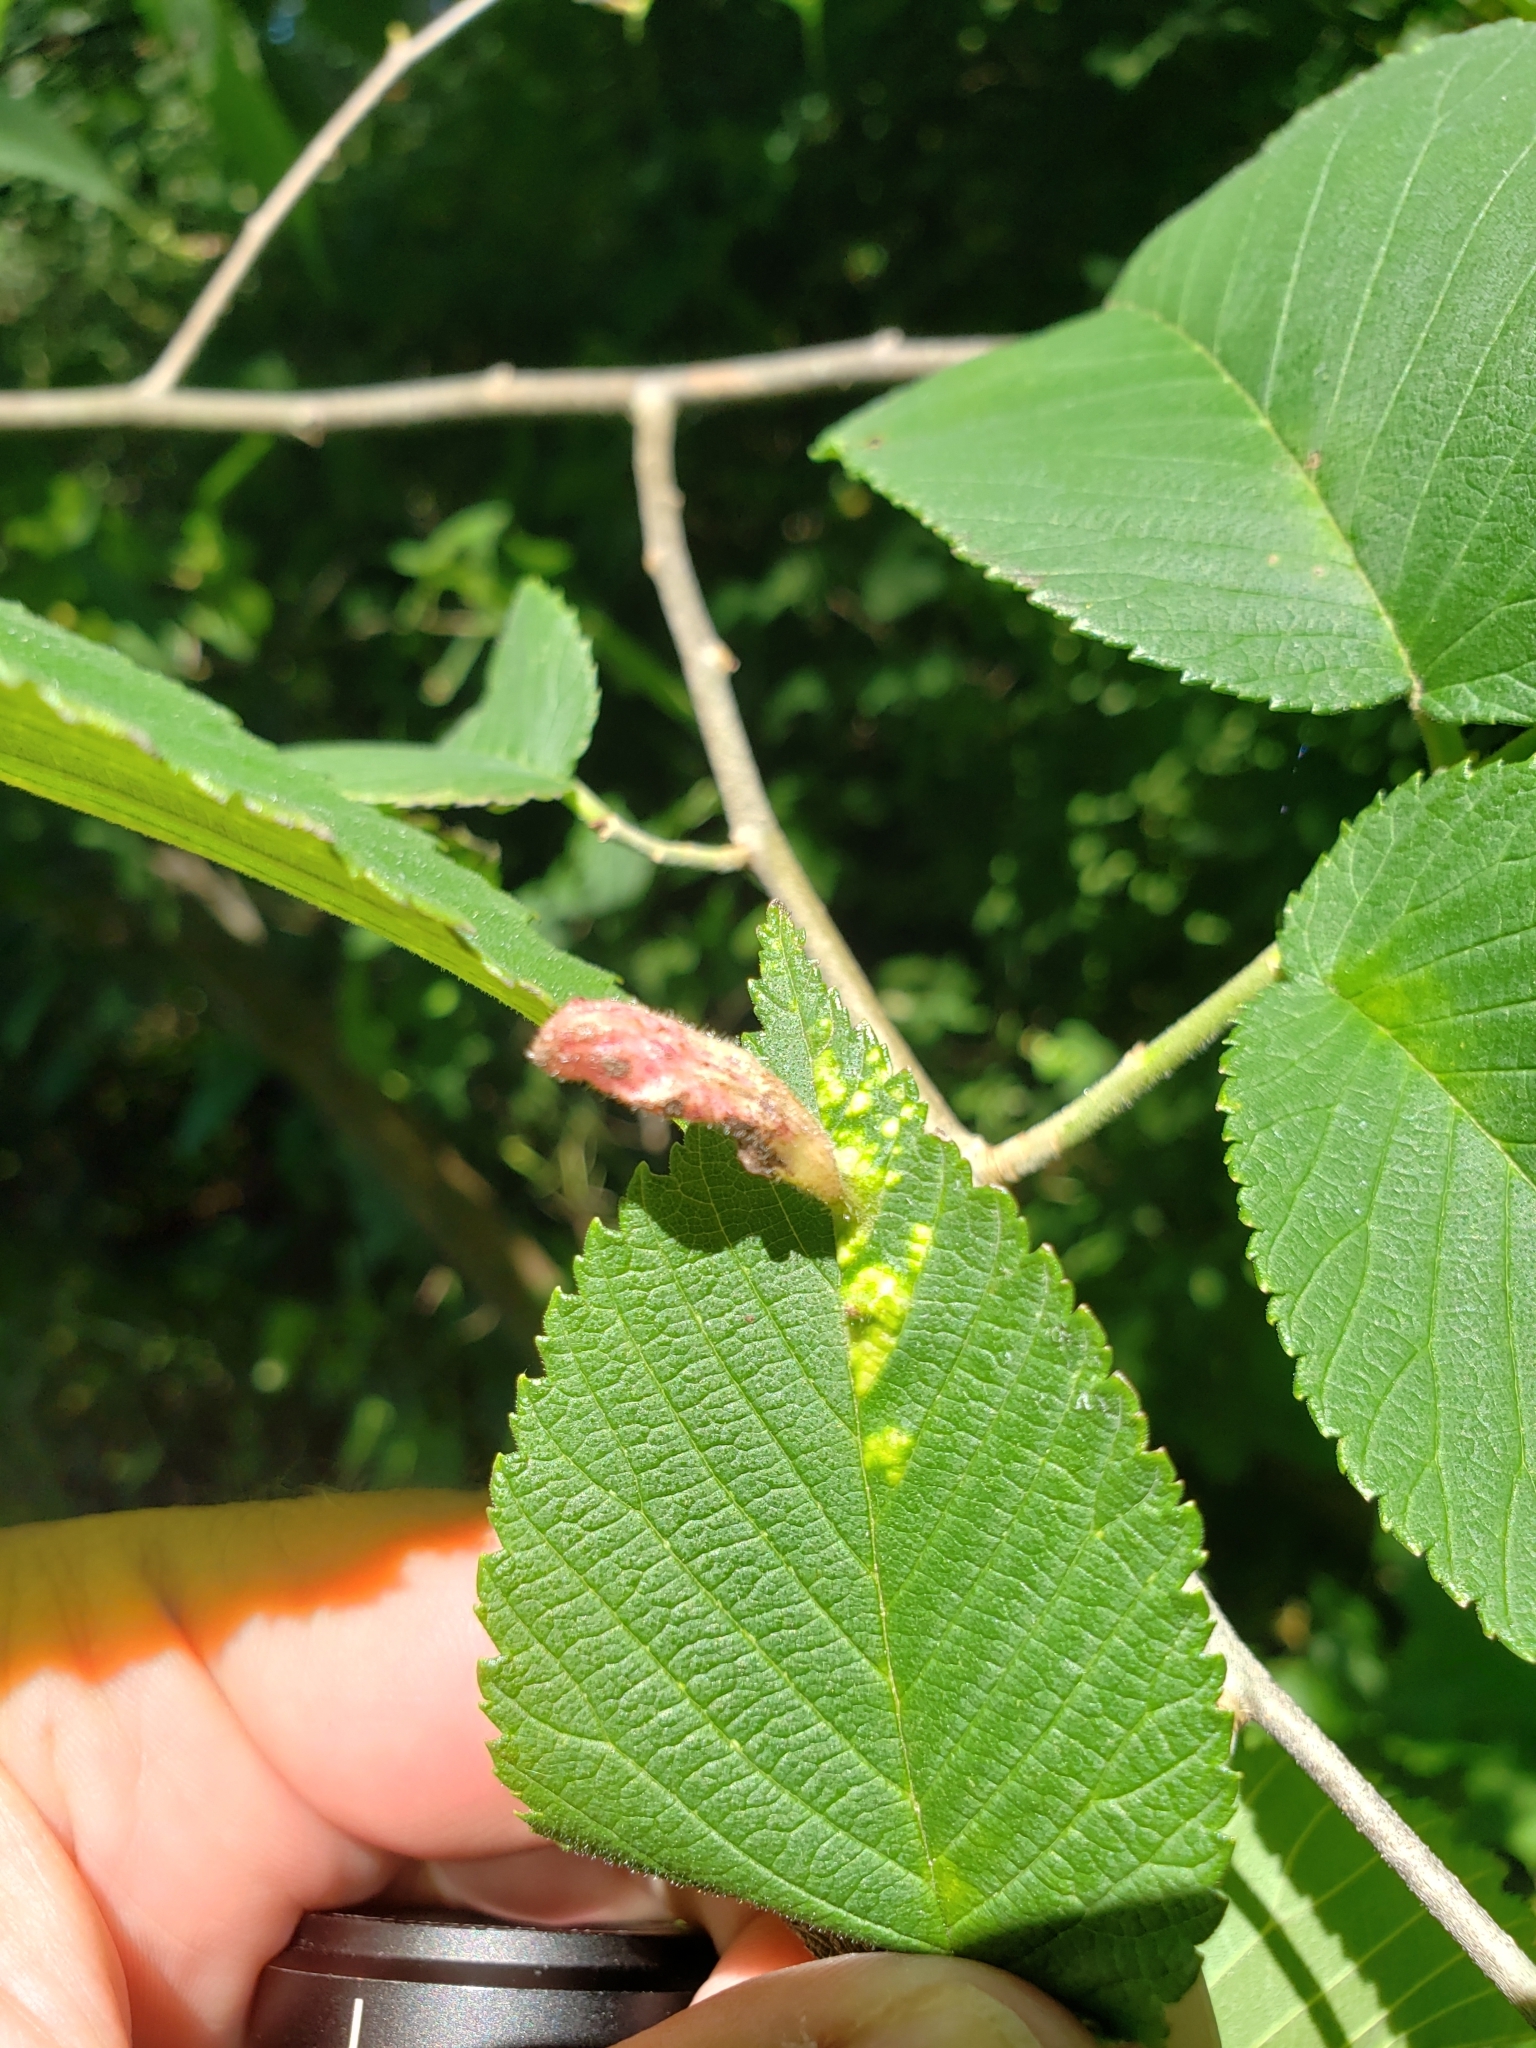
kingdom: Animalia
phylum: Arthropoda
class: Insecta
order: Hemiptera
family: Aphididae
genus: Tetraneura
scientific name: Tetraneura nigriabdominalis
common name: Aphid
